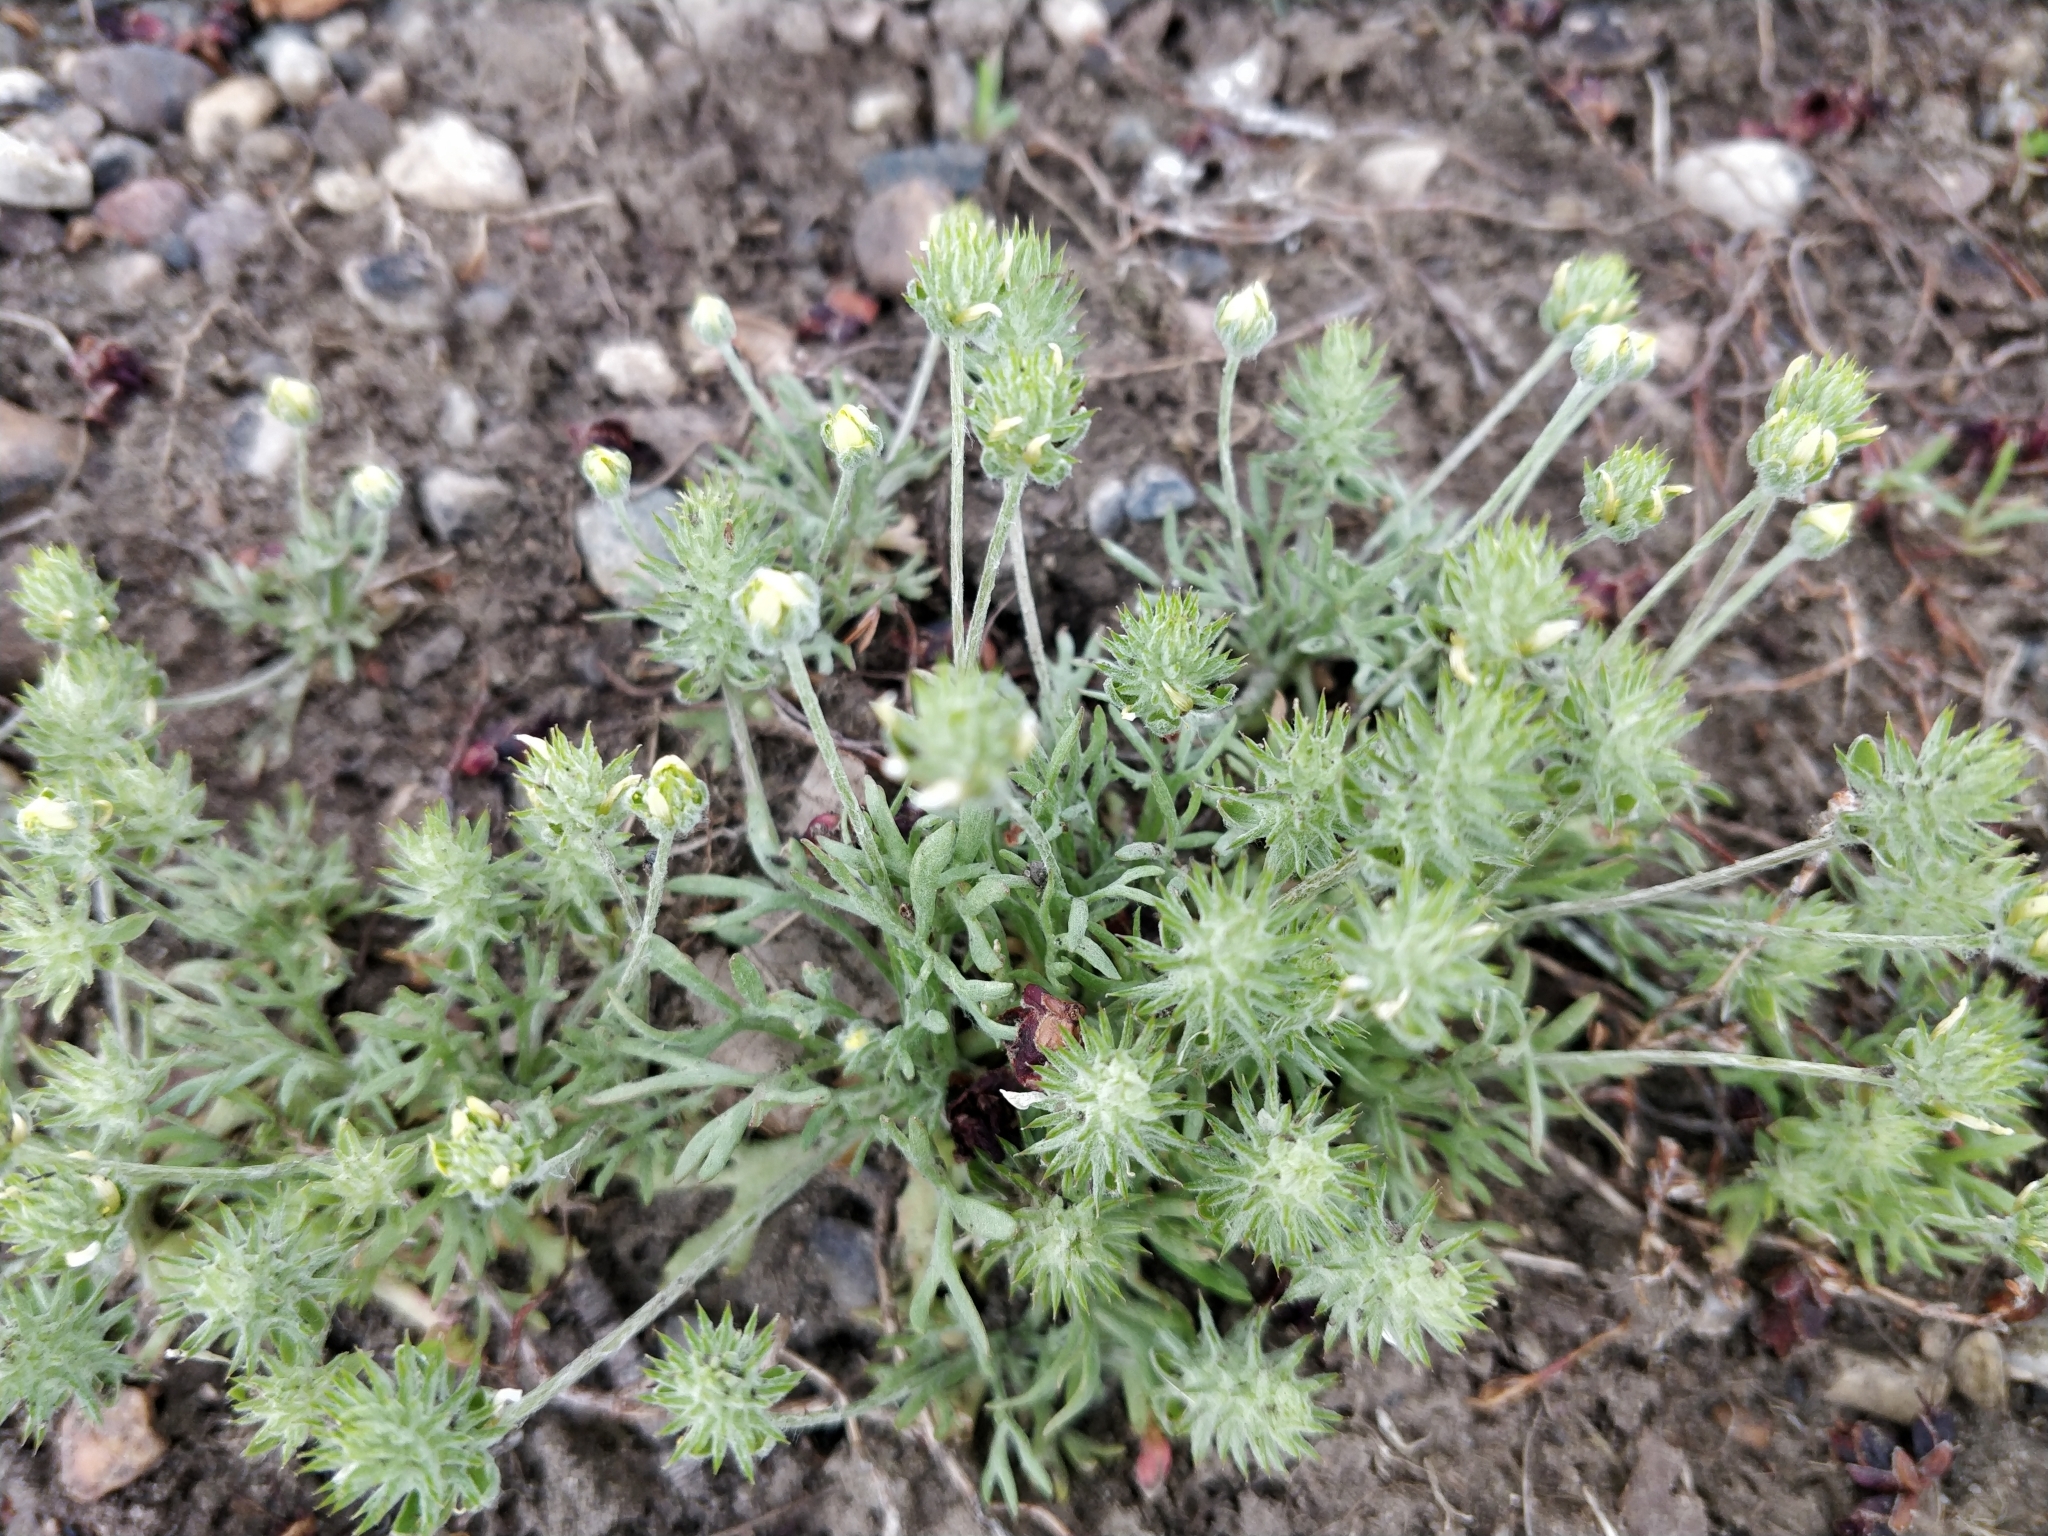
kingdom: Plantae
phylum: Tracheophyta
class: Magnoliopsida
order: Ranunculales
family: Ranunculaceae
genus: Ceratocephala
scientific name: Ceratocephala orthoceras
